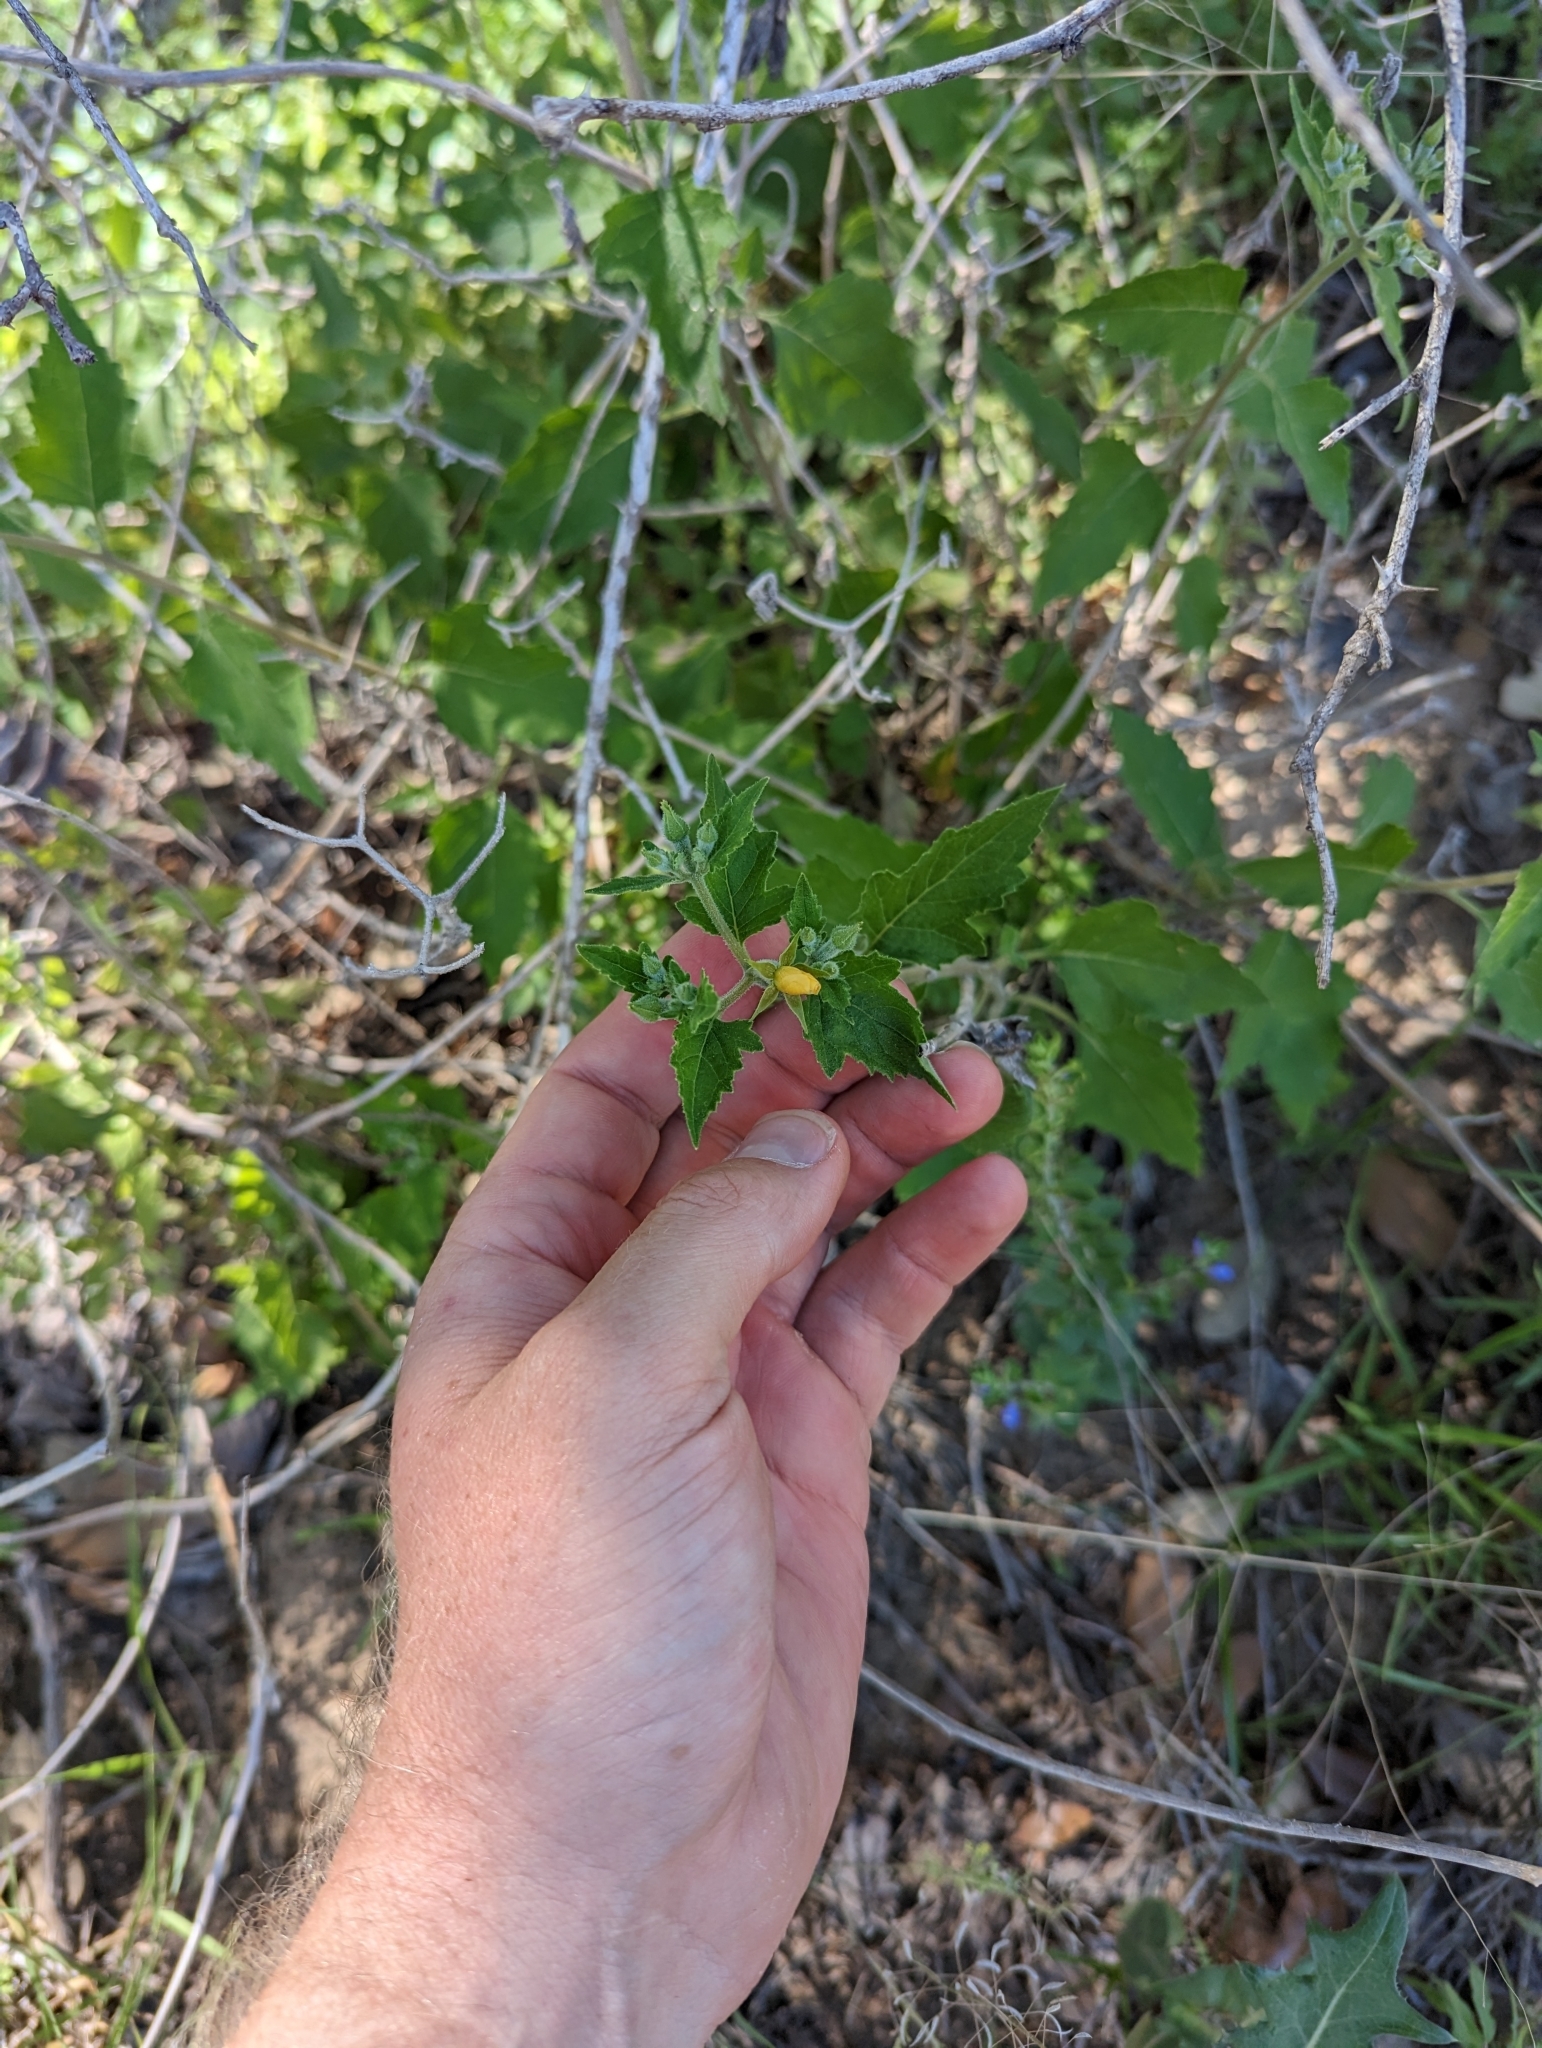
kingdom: Plantae
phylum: Tracheophyta
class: Magnoliopsida
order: Cornales
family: Loasaceae
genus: Mentzelia
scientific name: Mentzelia oligosperma
